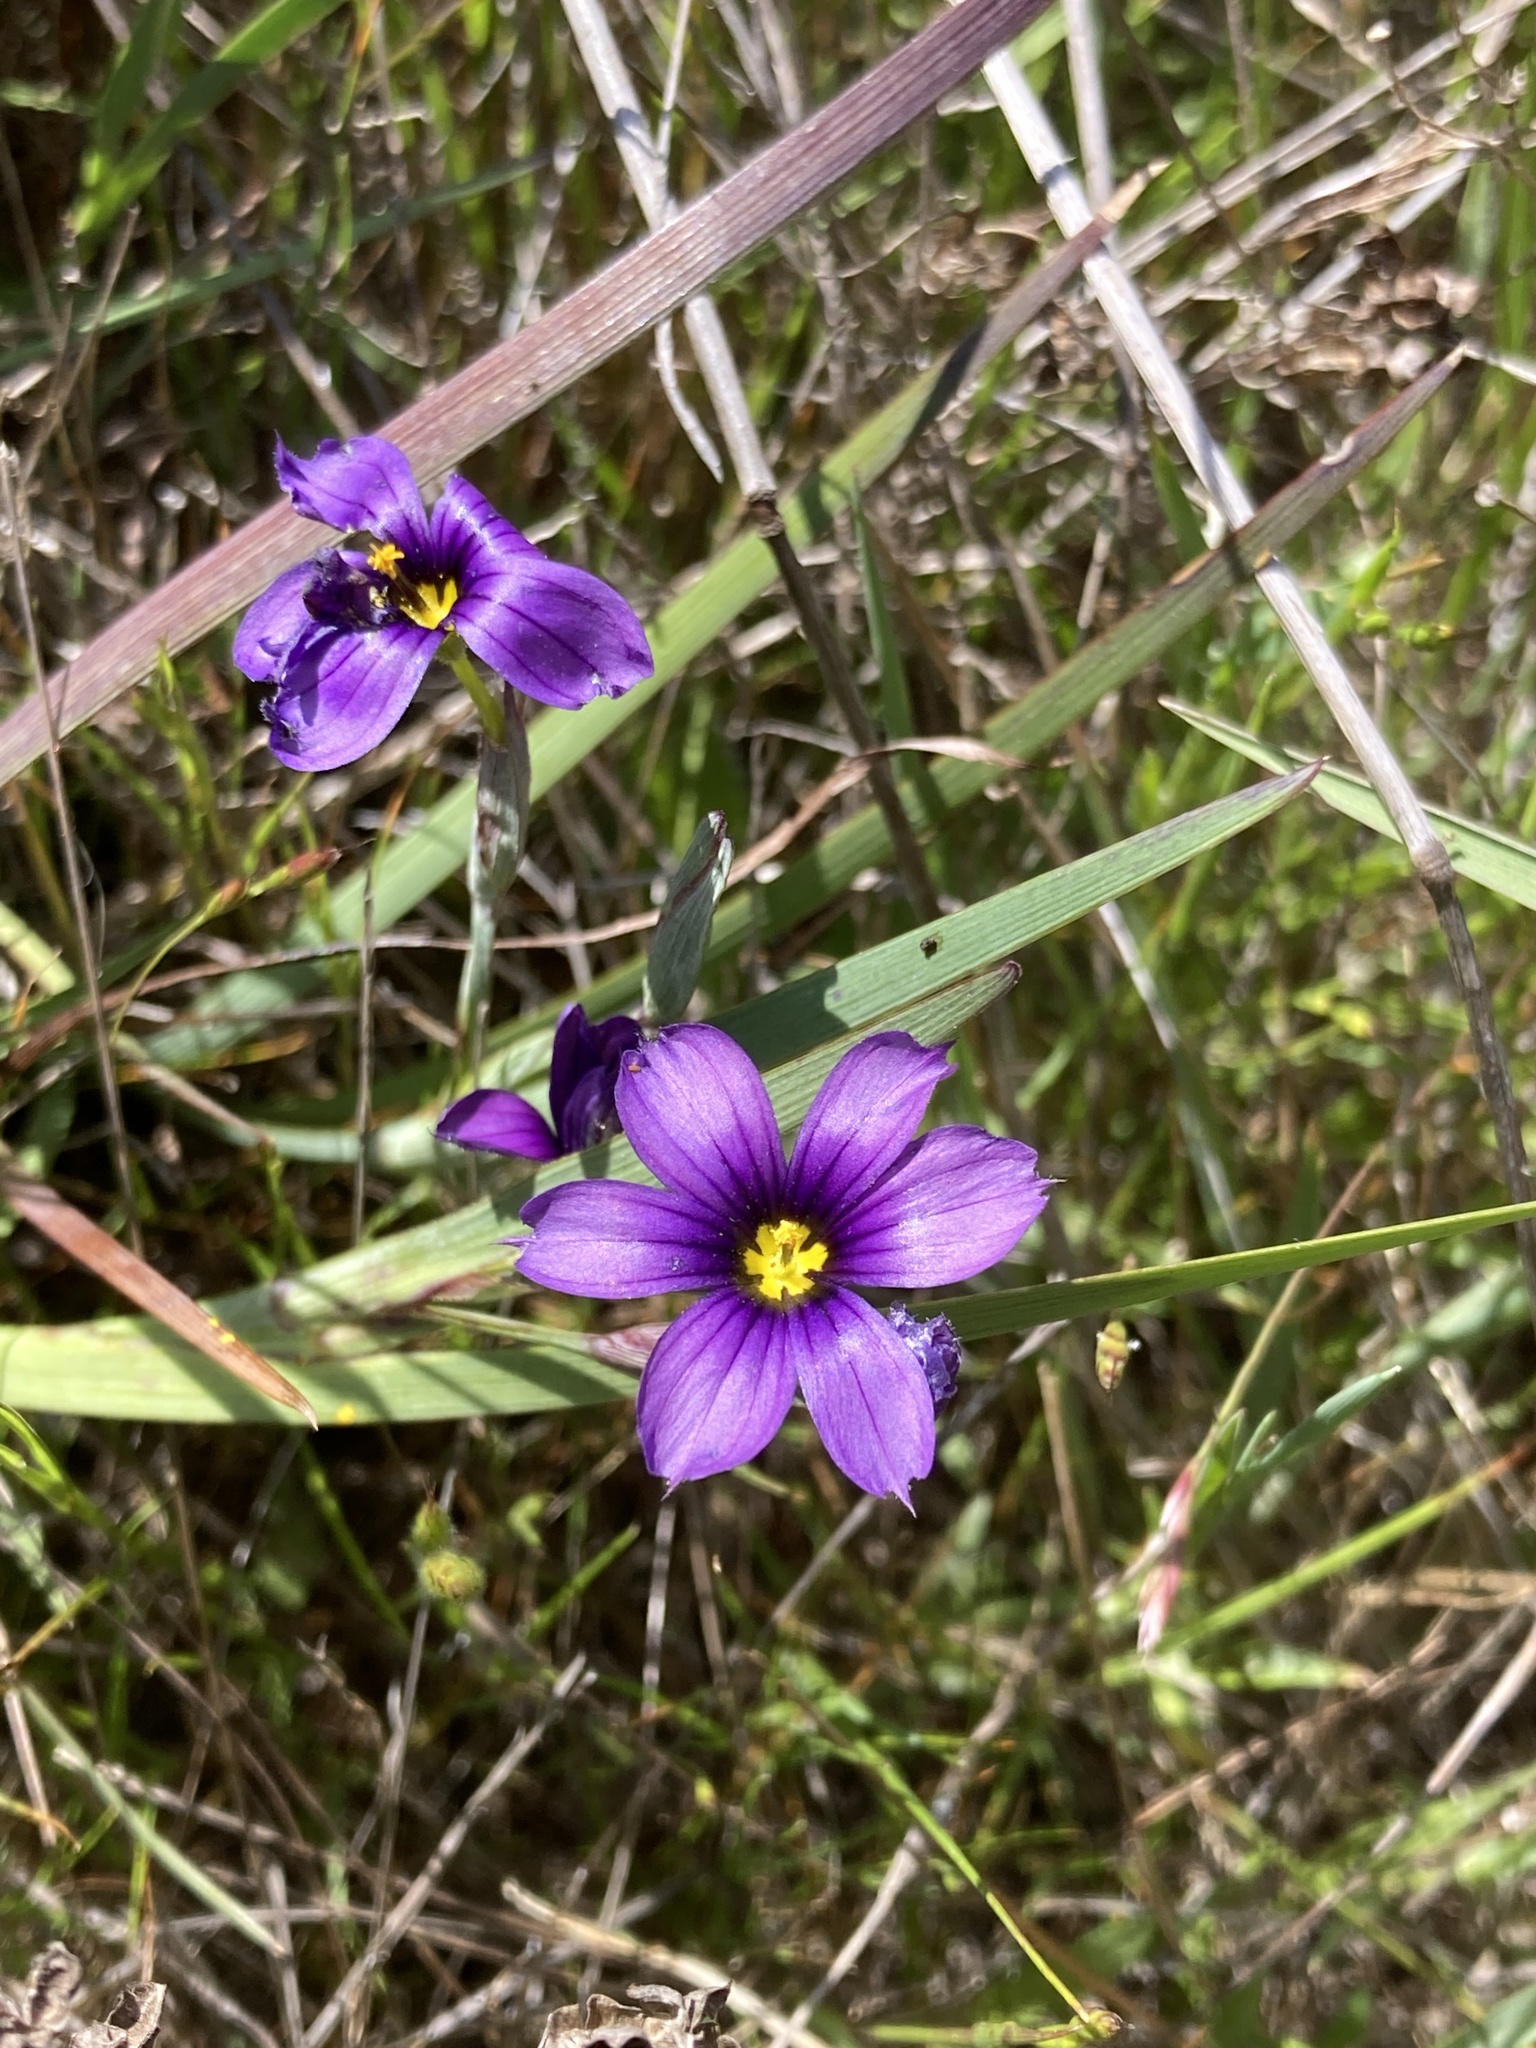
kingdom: Plantae
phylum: Tracheophyta
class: Liliopsida
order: Asparagales
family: Iridaceae
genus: Sisyrinchium
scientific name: Sisyrinchium bellum
